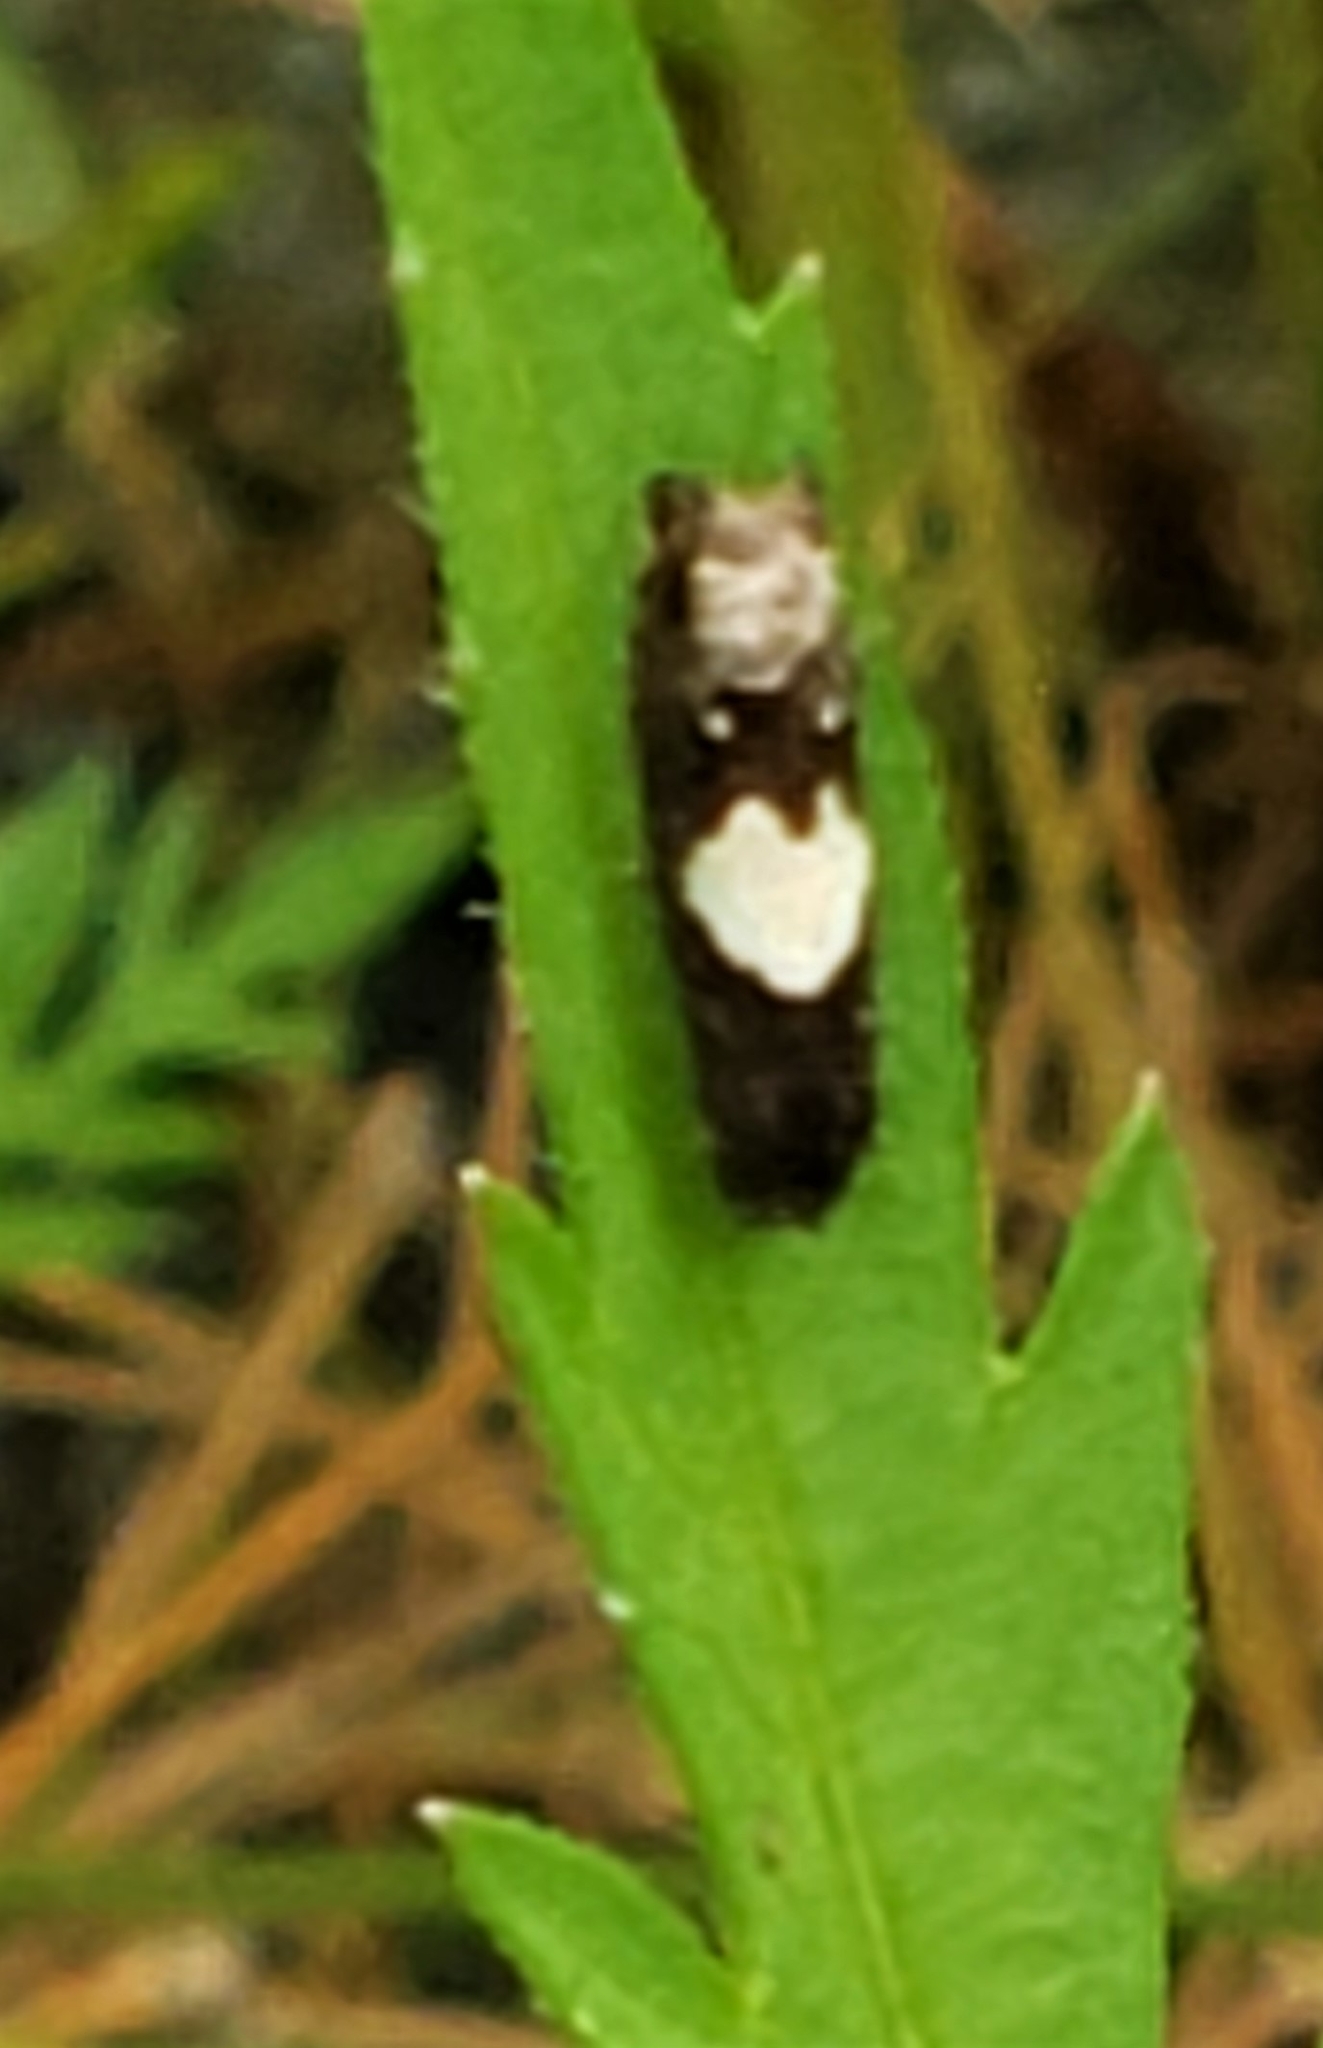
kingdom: Animalia
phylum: Arthropoda
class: Insecta
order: Lepidoptera
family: Tortricidae
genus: Epiblema
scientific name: Epiblema otiosana
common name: Bidens borer moth
